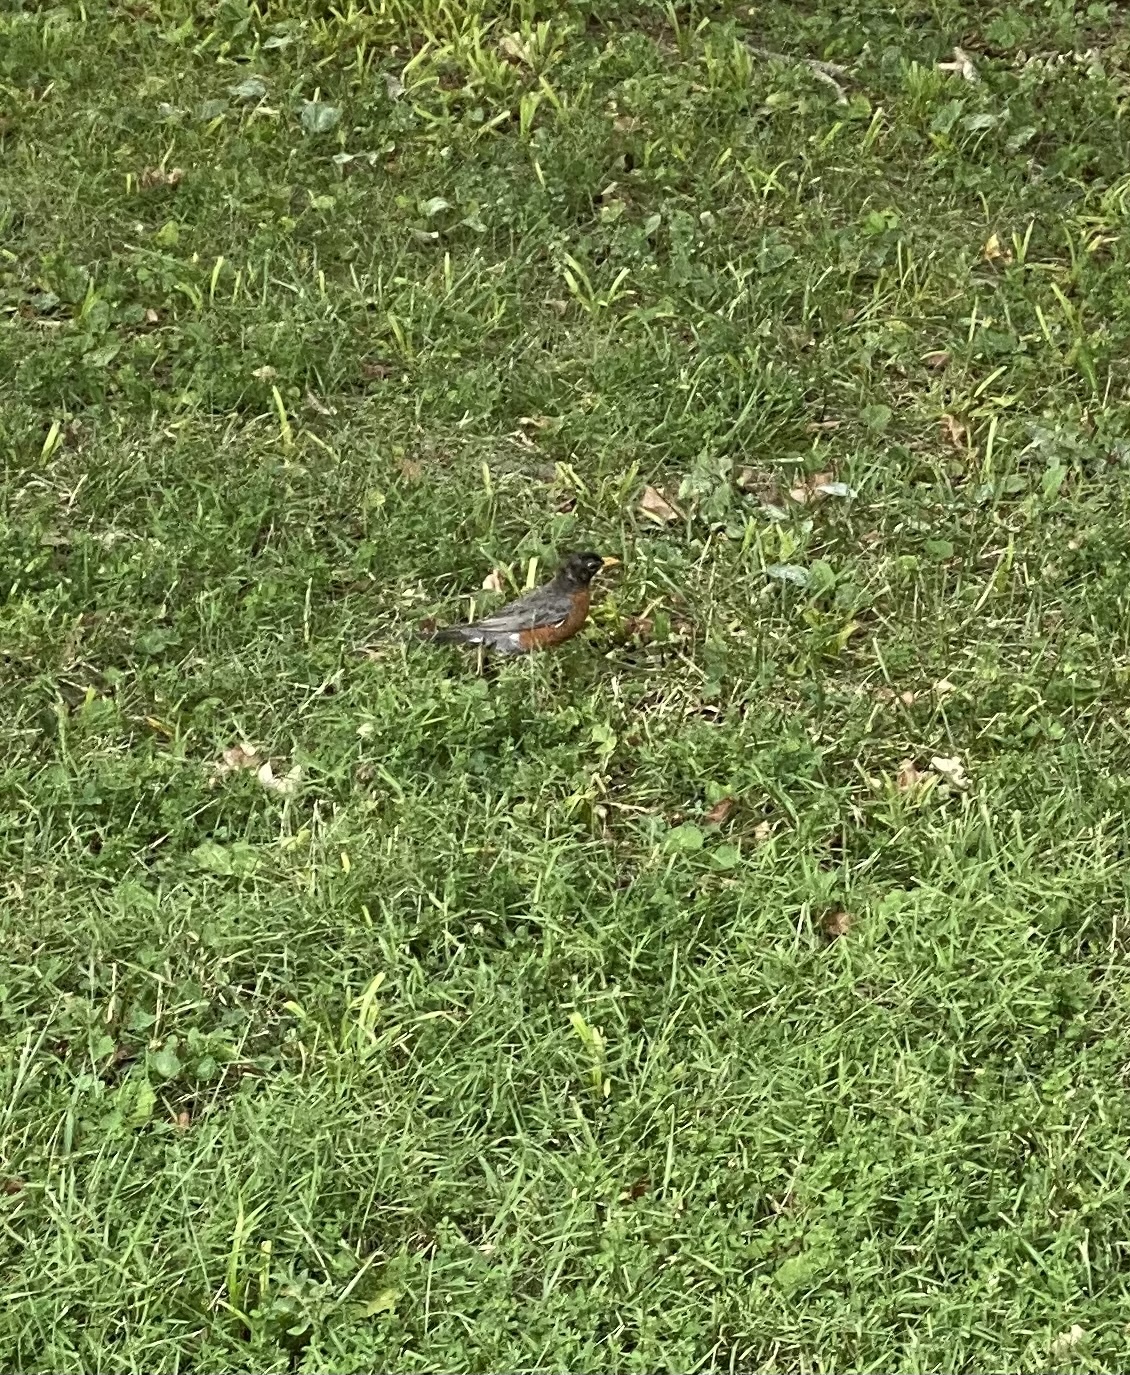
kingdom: Animalia
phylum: Chordata
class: Aves
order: Passeriformes
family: Turdidae
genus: Turdus
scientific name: Turdus migratorius
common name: American robin
